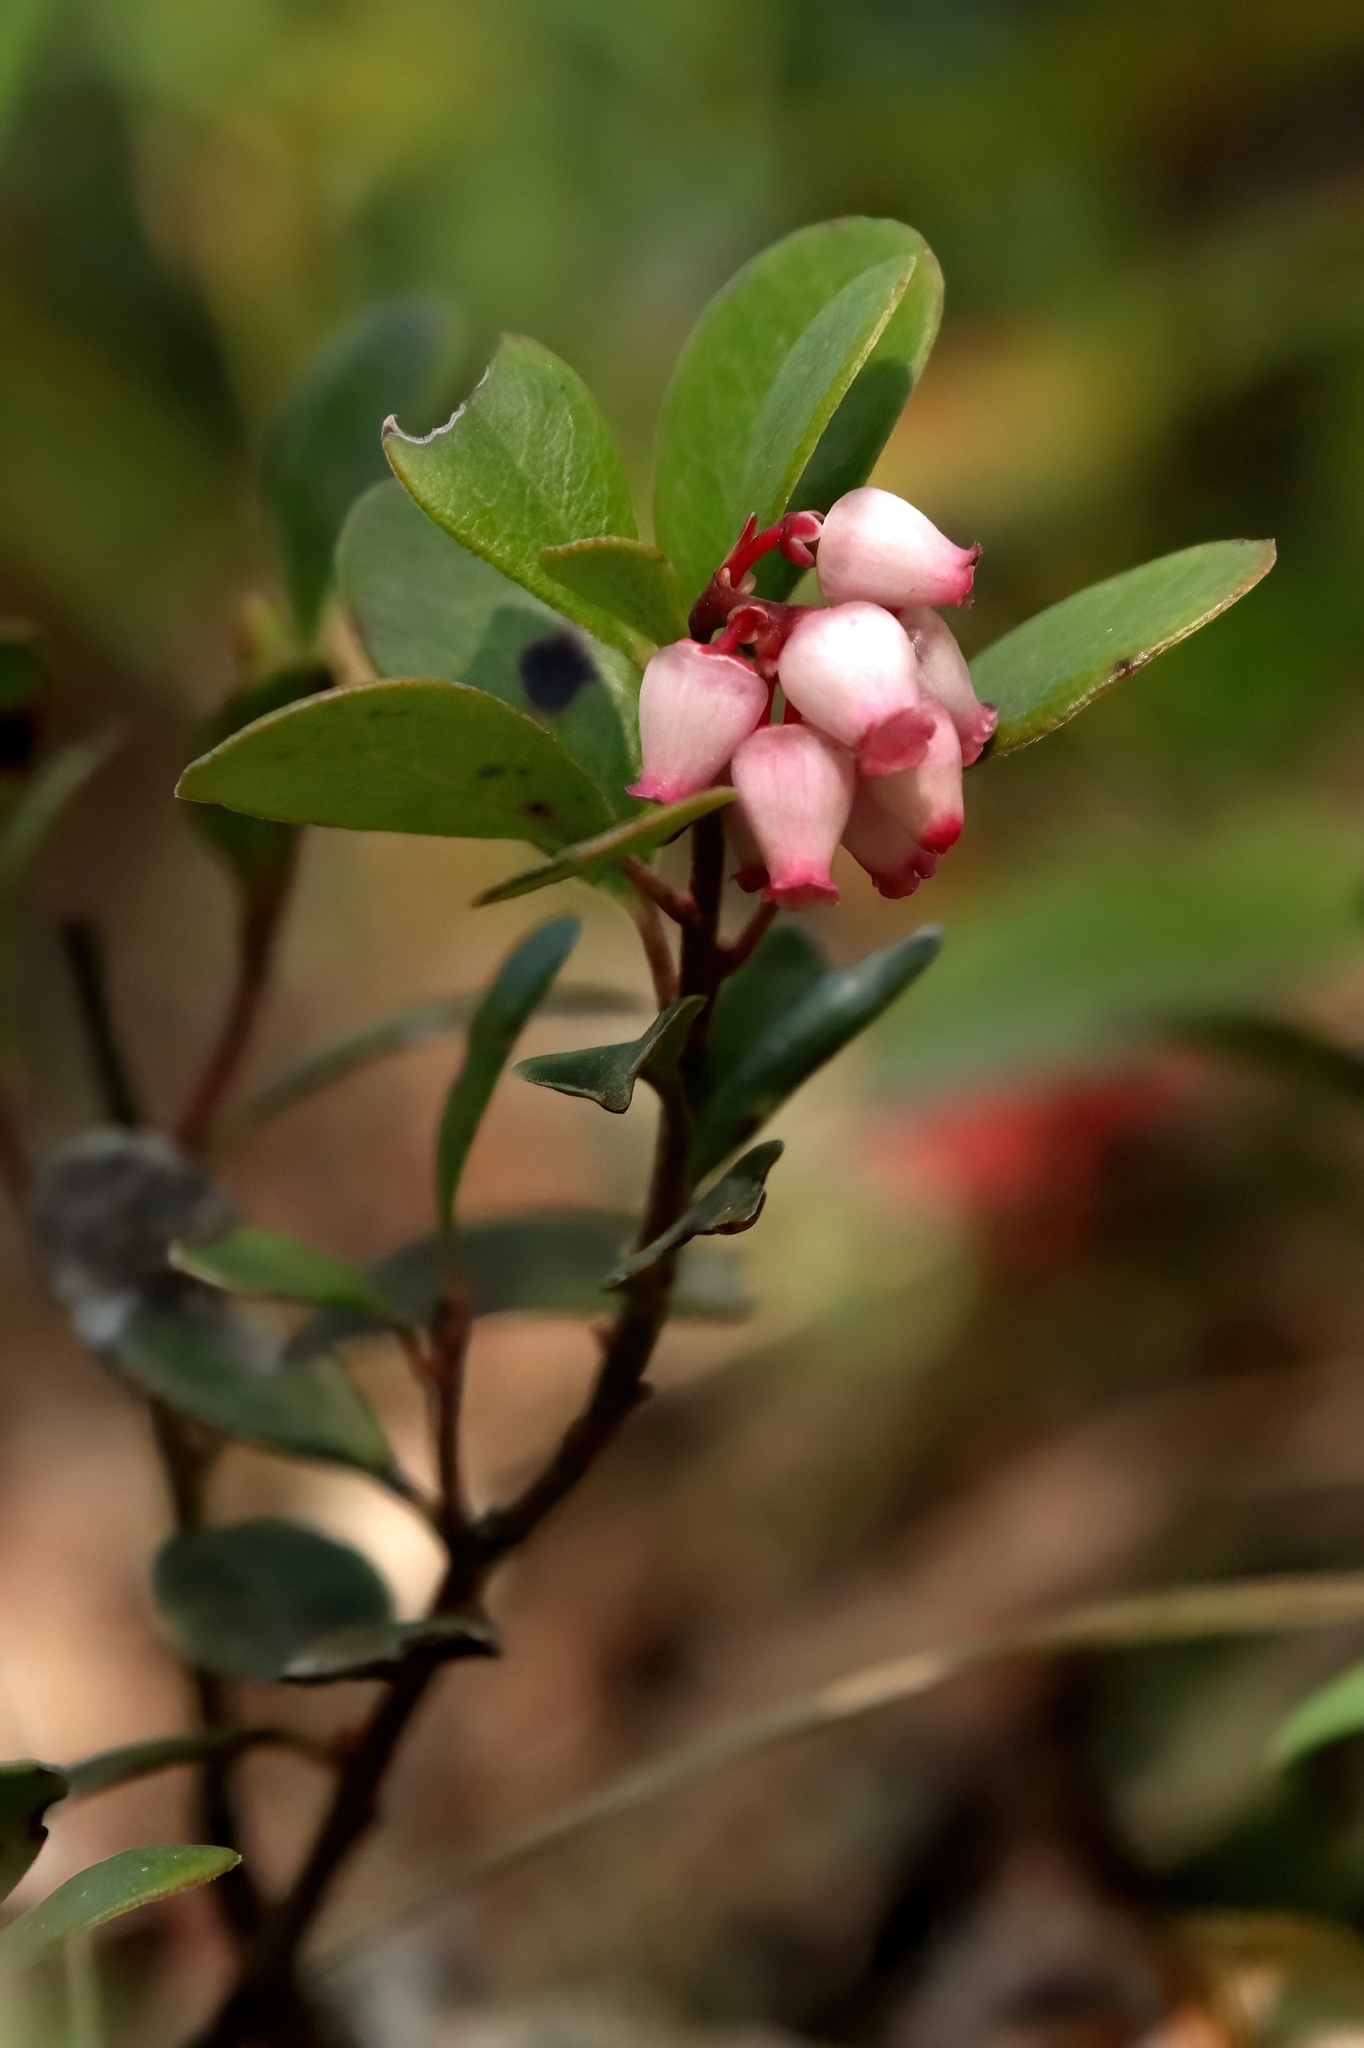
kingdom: Plantae
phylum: Tracheophyta
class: Magnoliopsida
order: Ericales
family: Ericaceae
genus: Arctostaphylos
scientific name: Arctostaphylos uva-ursi
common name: Bearberry
